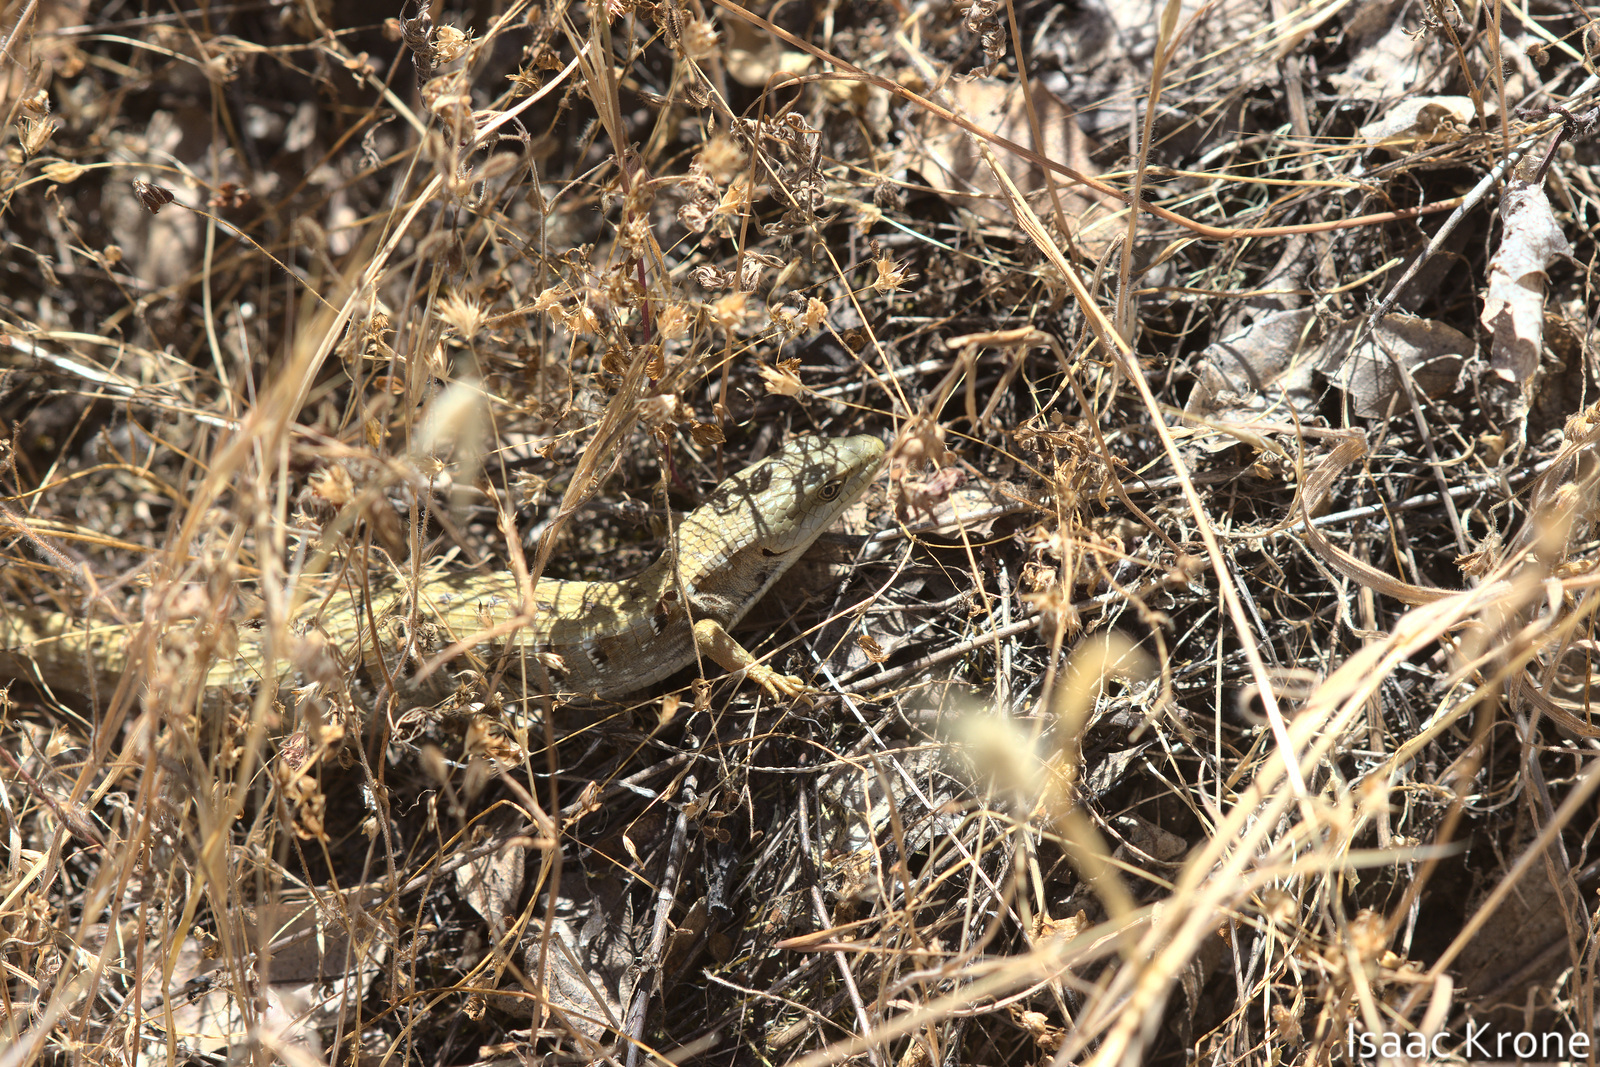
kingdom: Animalia
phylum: Chordata
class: Squamata
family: Anguidae
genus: Elgaria
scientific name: Elgaria multicarinata
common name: Southern alligator lizard
